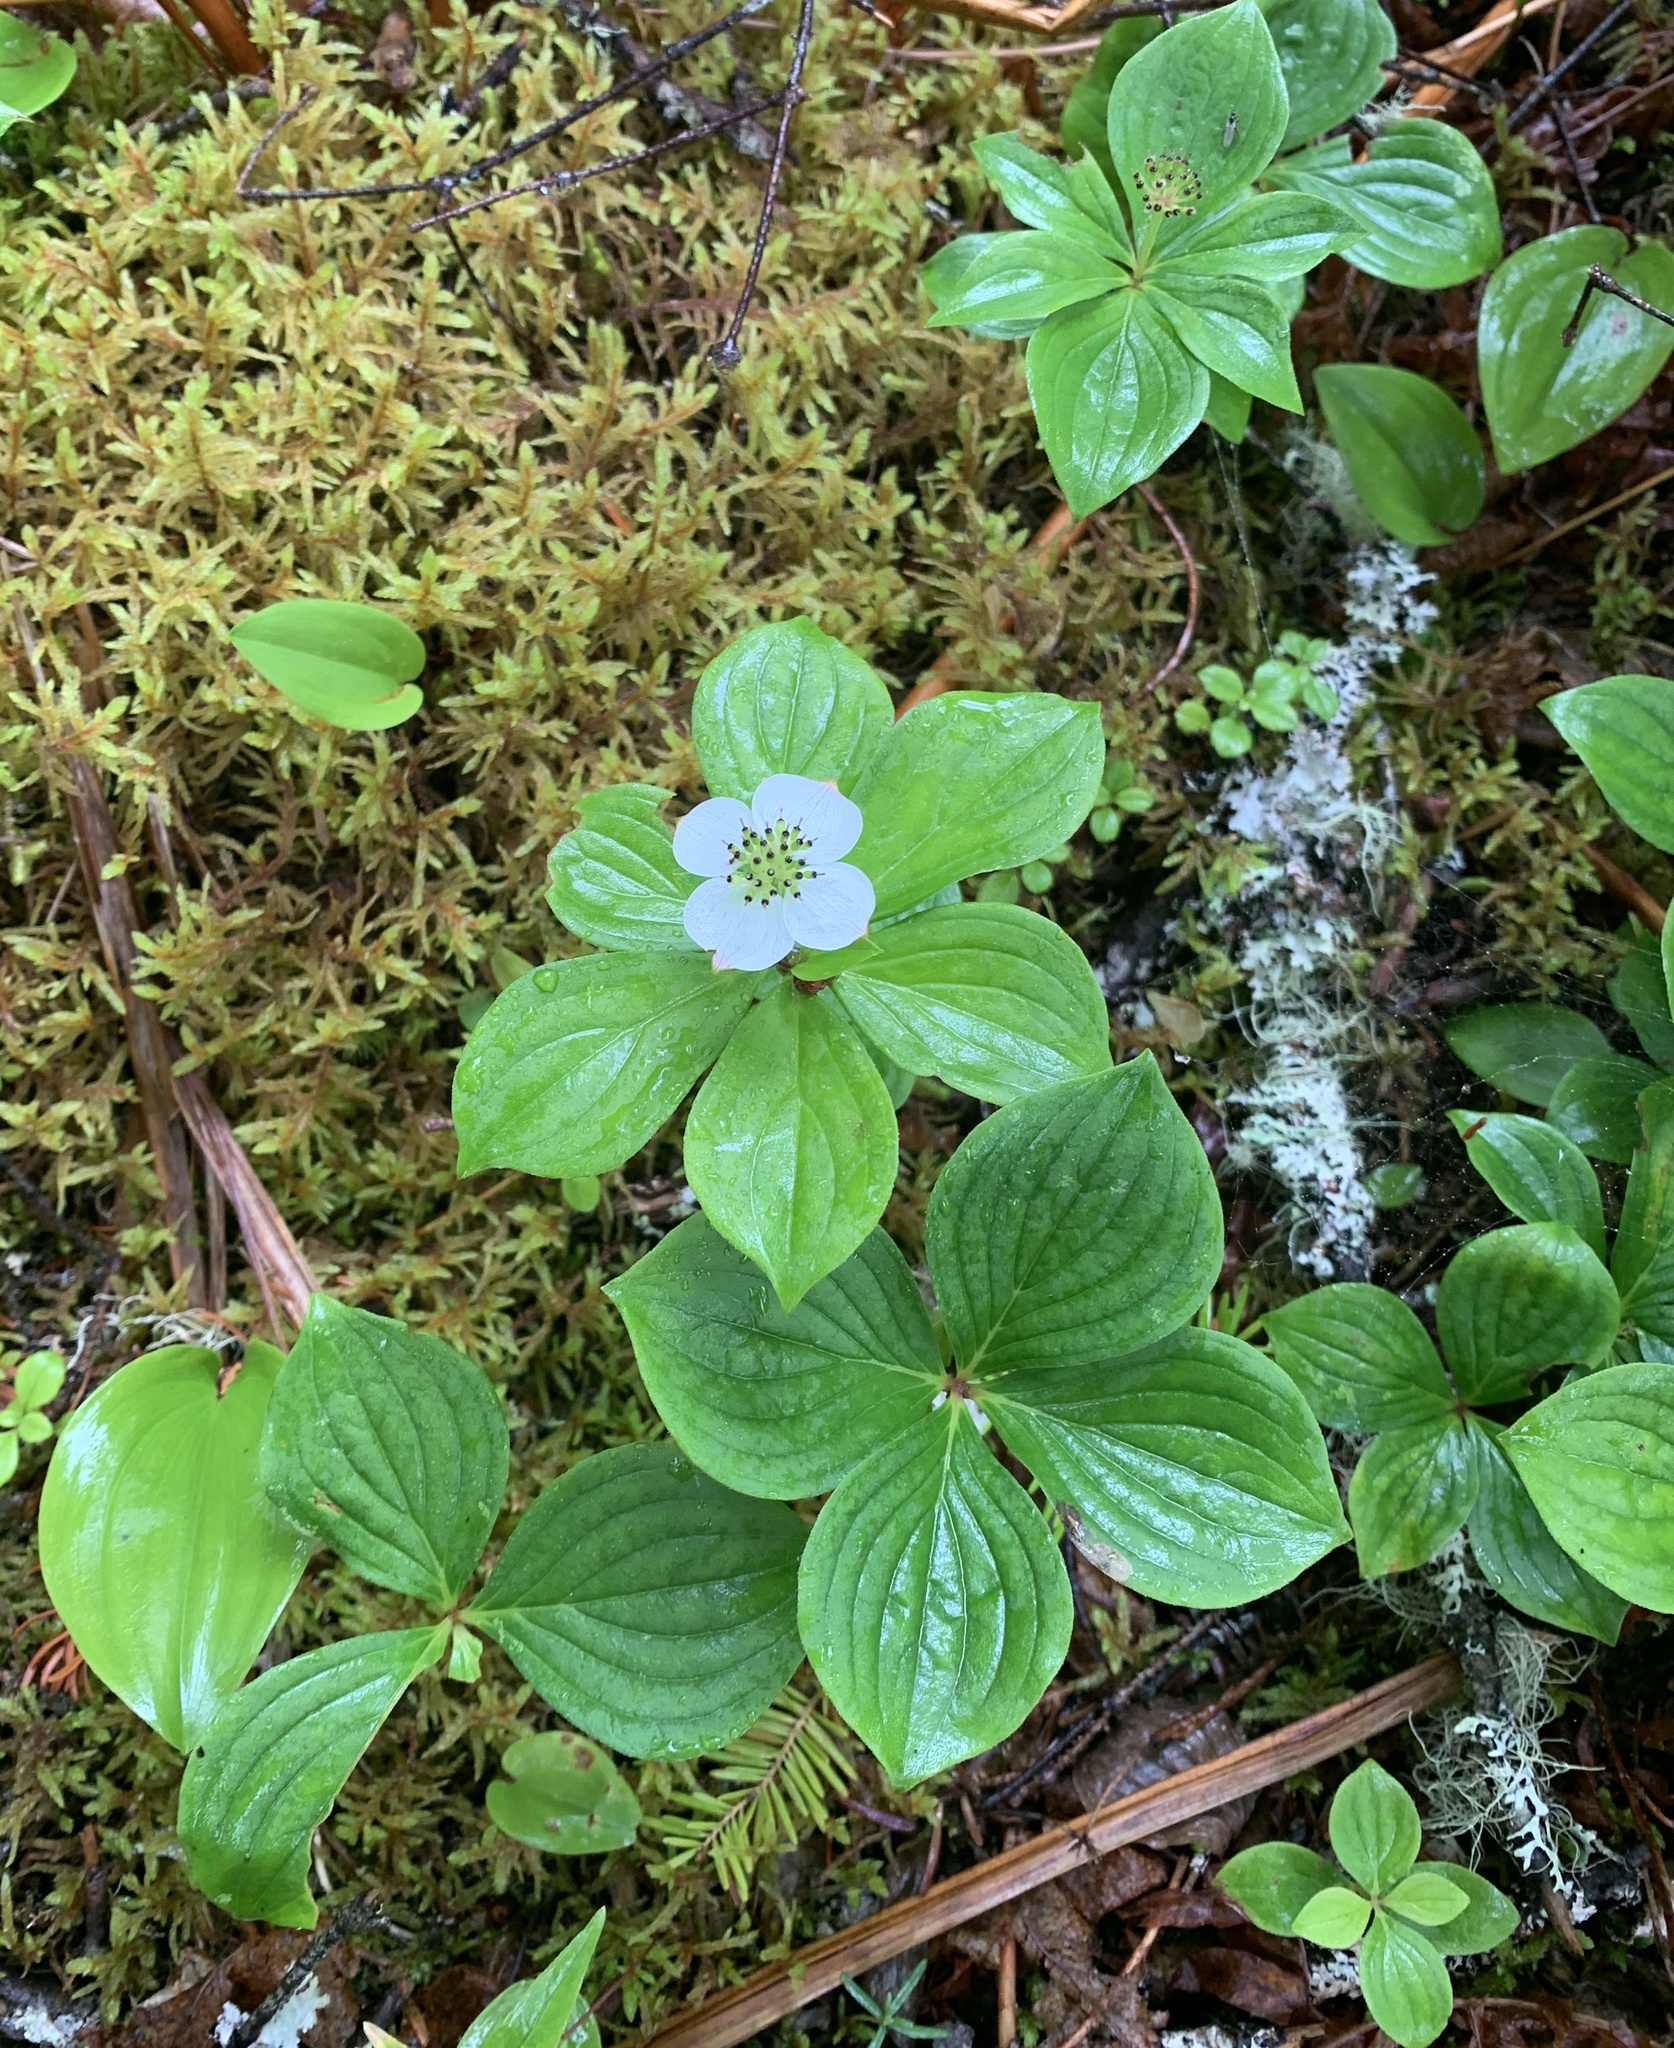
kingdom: Plantae
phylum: Tracheophyta
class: Magnoliopsida
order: Cornales
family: Cornaceae
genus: Cornus
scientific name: Cornus canadensis
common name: Creeping dogwood
